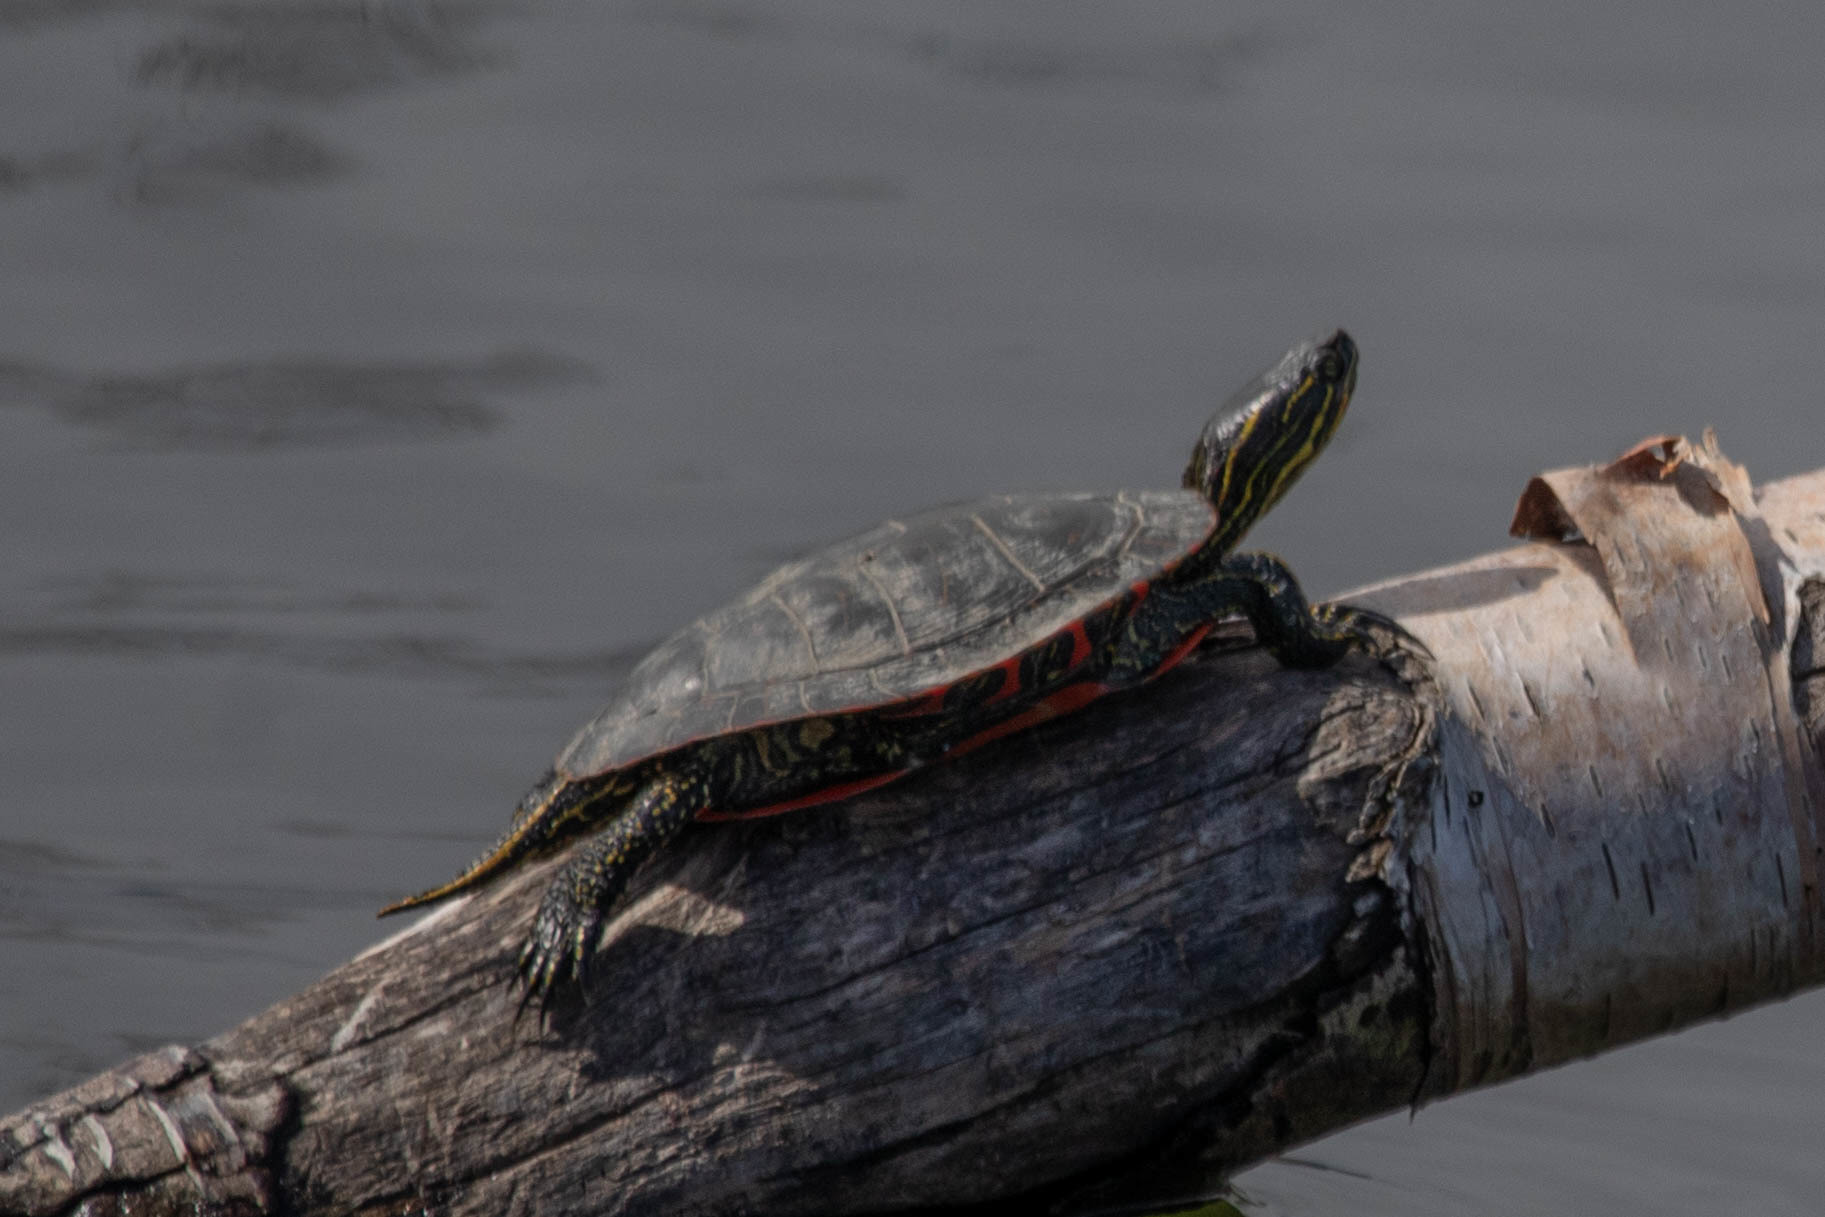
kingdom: Animalia
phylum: Chordata
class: Testudines
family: Emydidae
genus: Chrysemys
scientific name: Chrysemys picta
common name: Painted turtle
